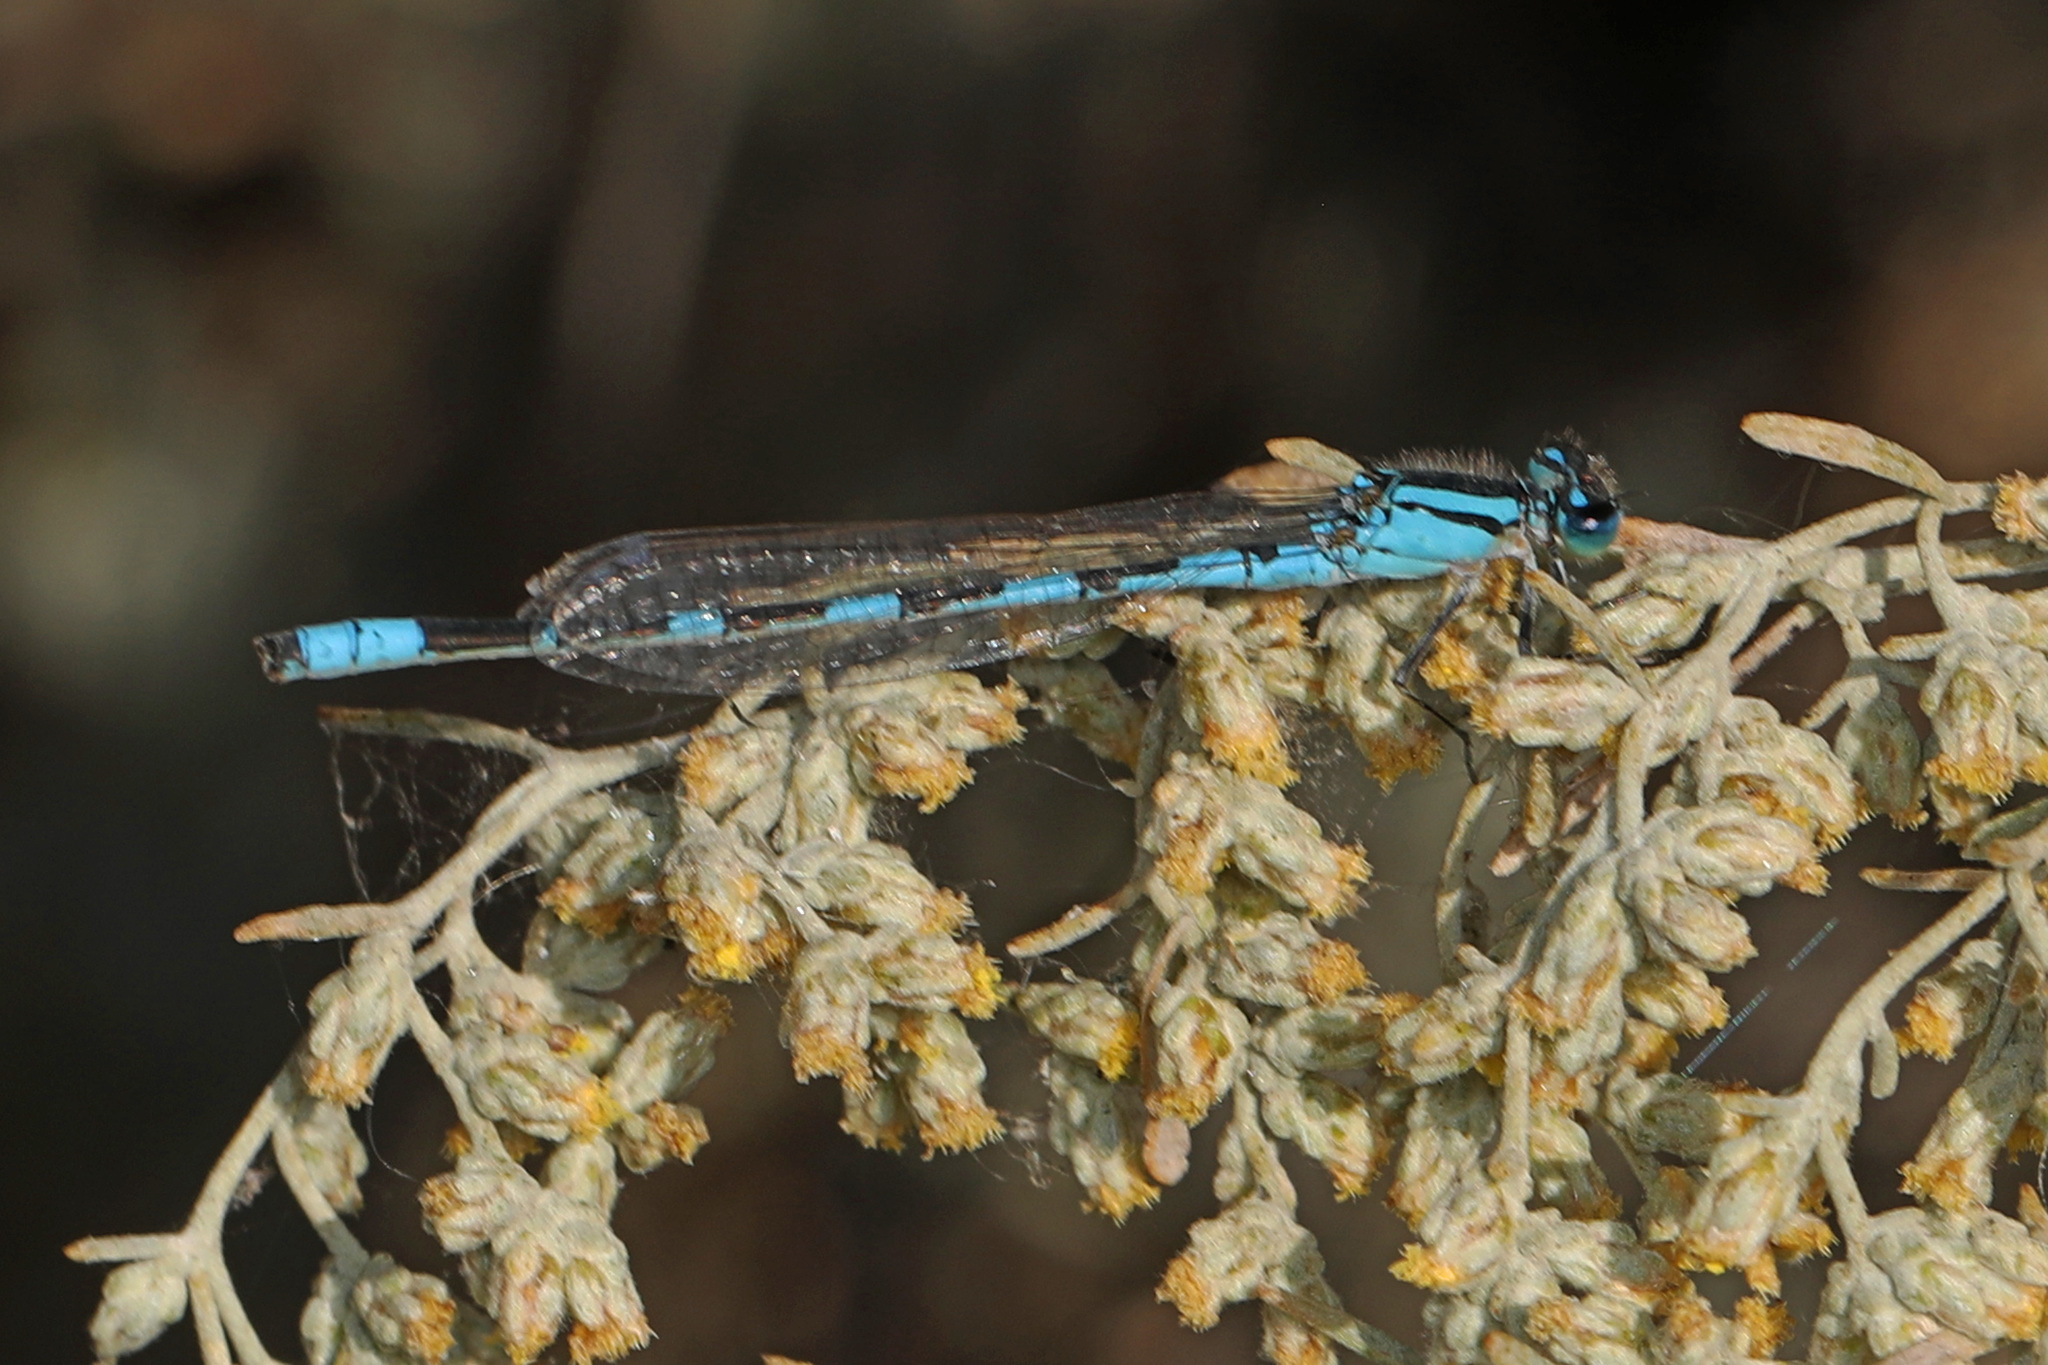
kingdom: Animalia
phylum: Arthropoda
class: Insecta
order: Odonata
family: Coenagrionidae
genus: Enallagma
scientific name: Enallagma carunculatum
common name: Tule bluet
